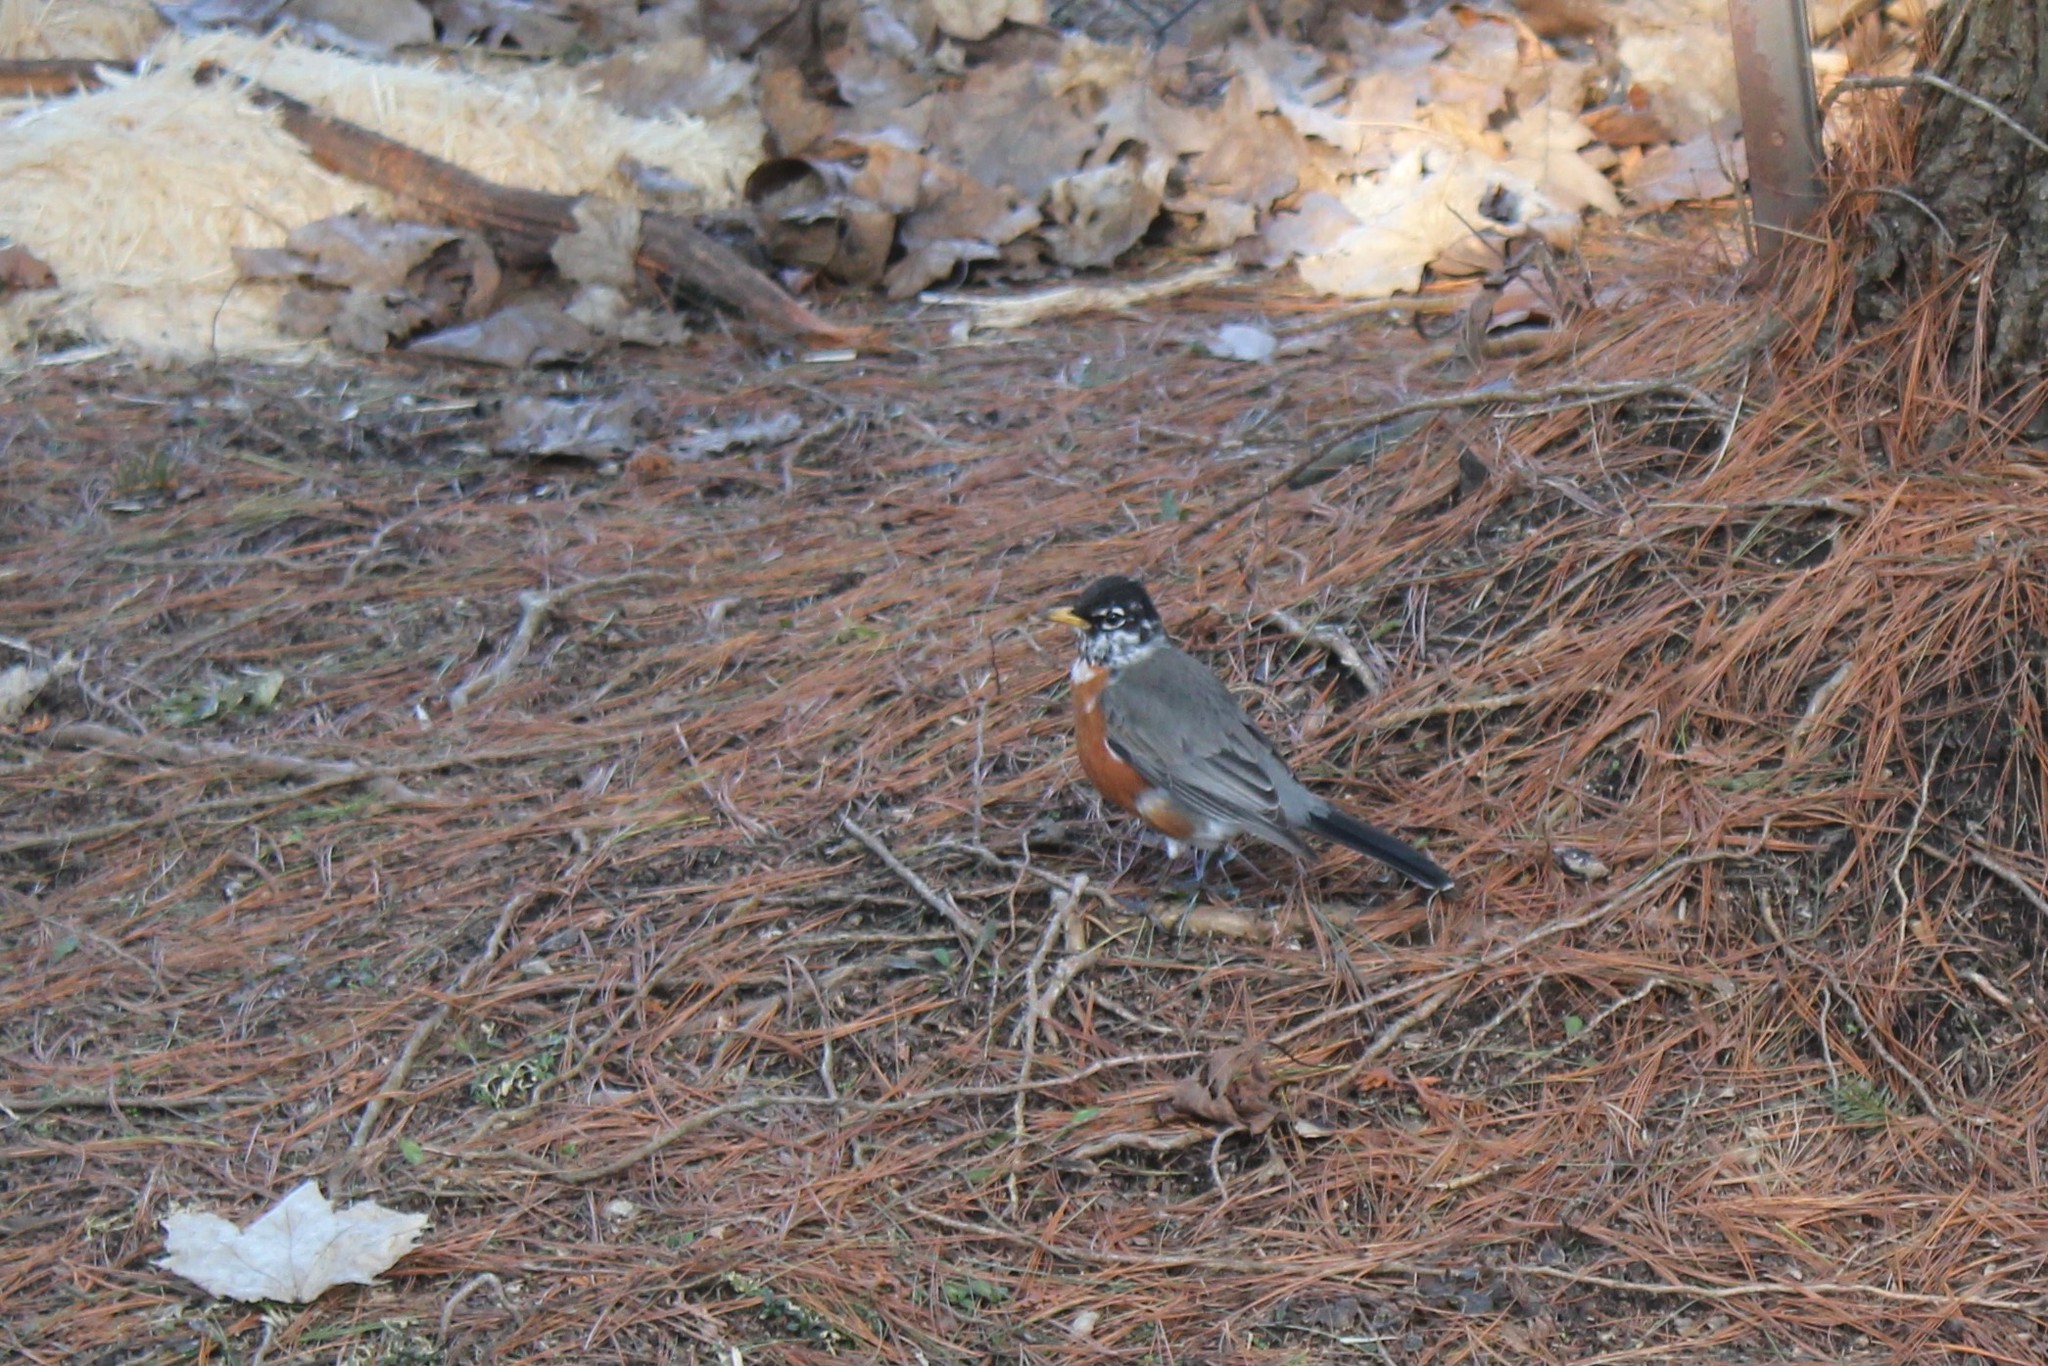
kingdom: Animalia
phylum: Chordata
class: Aves
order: Passeriformes
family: Turdidae
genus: Turdus
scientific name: Turdus migratorius
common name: American robin
